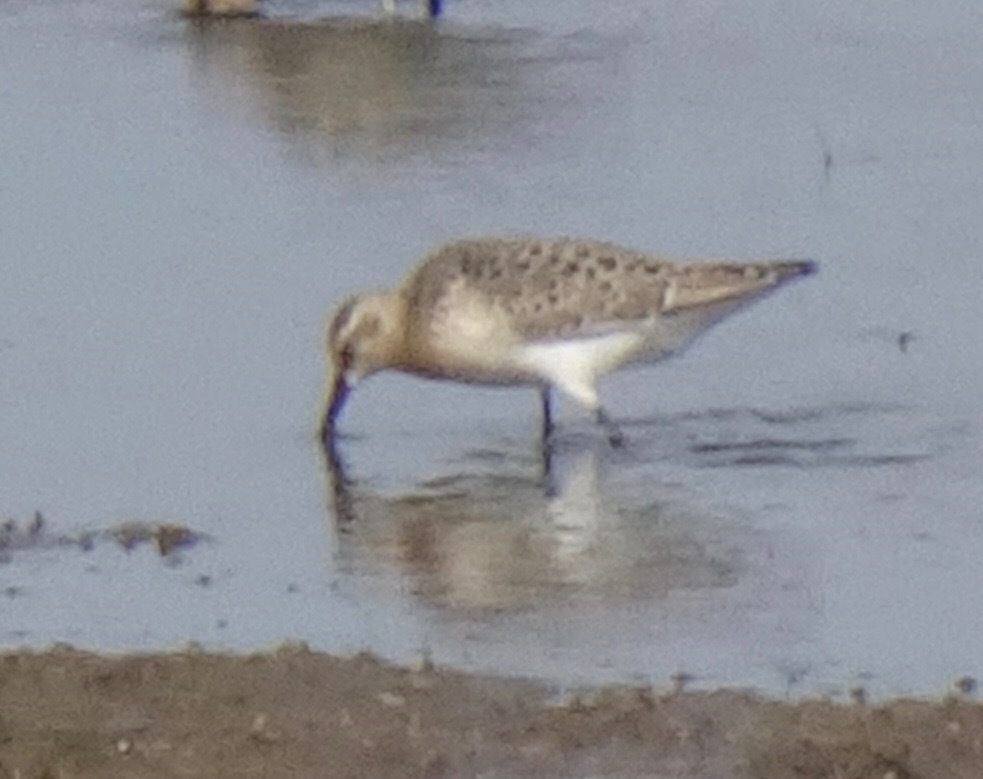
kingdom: Animalia
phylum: Chordata
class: Aves
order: Charadriiformes
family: Scolopacidae
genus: Calidris
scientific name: Calidris ferruginea
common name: Curlew sandpiper
